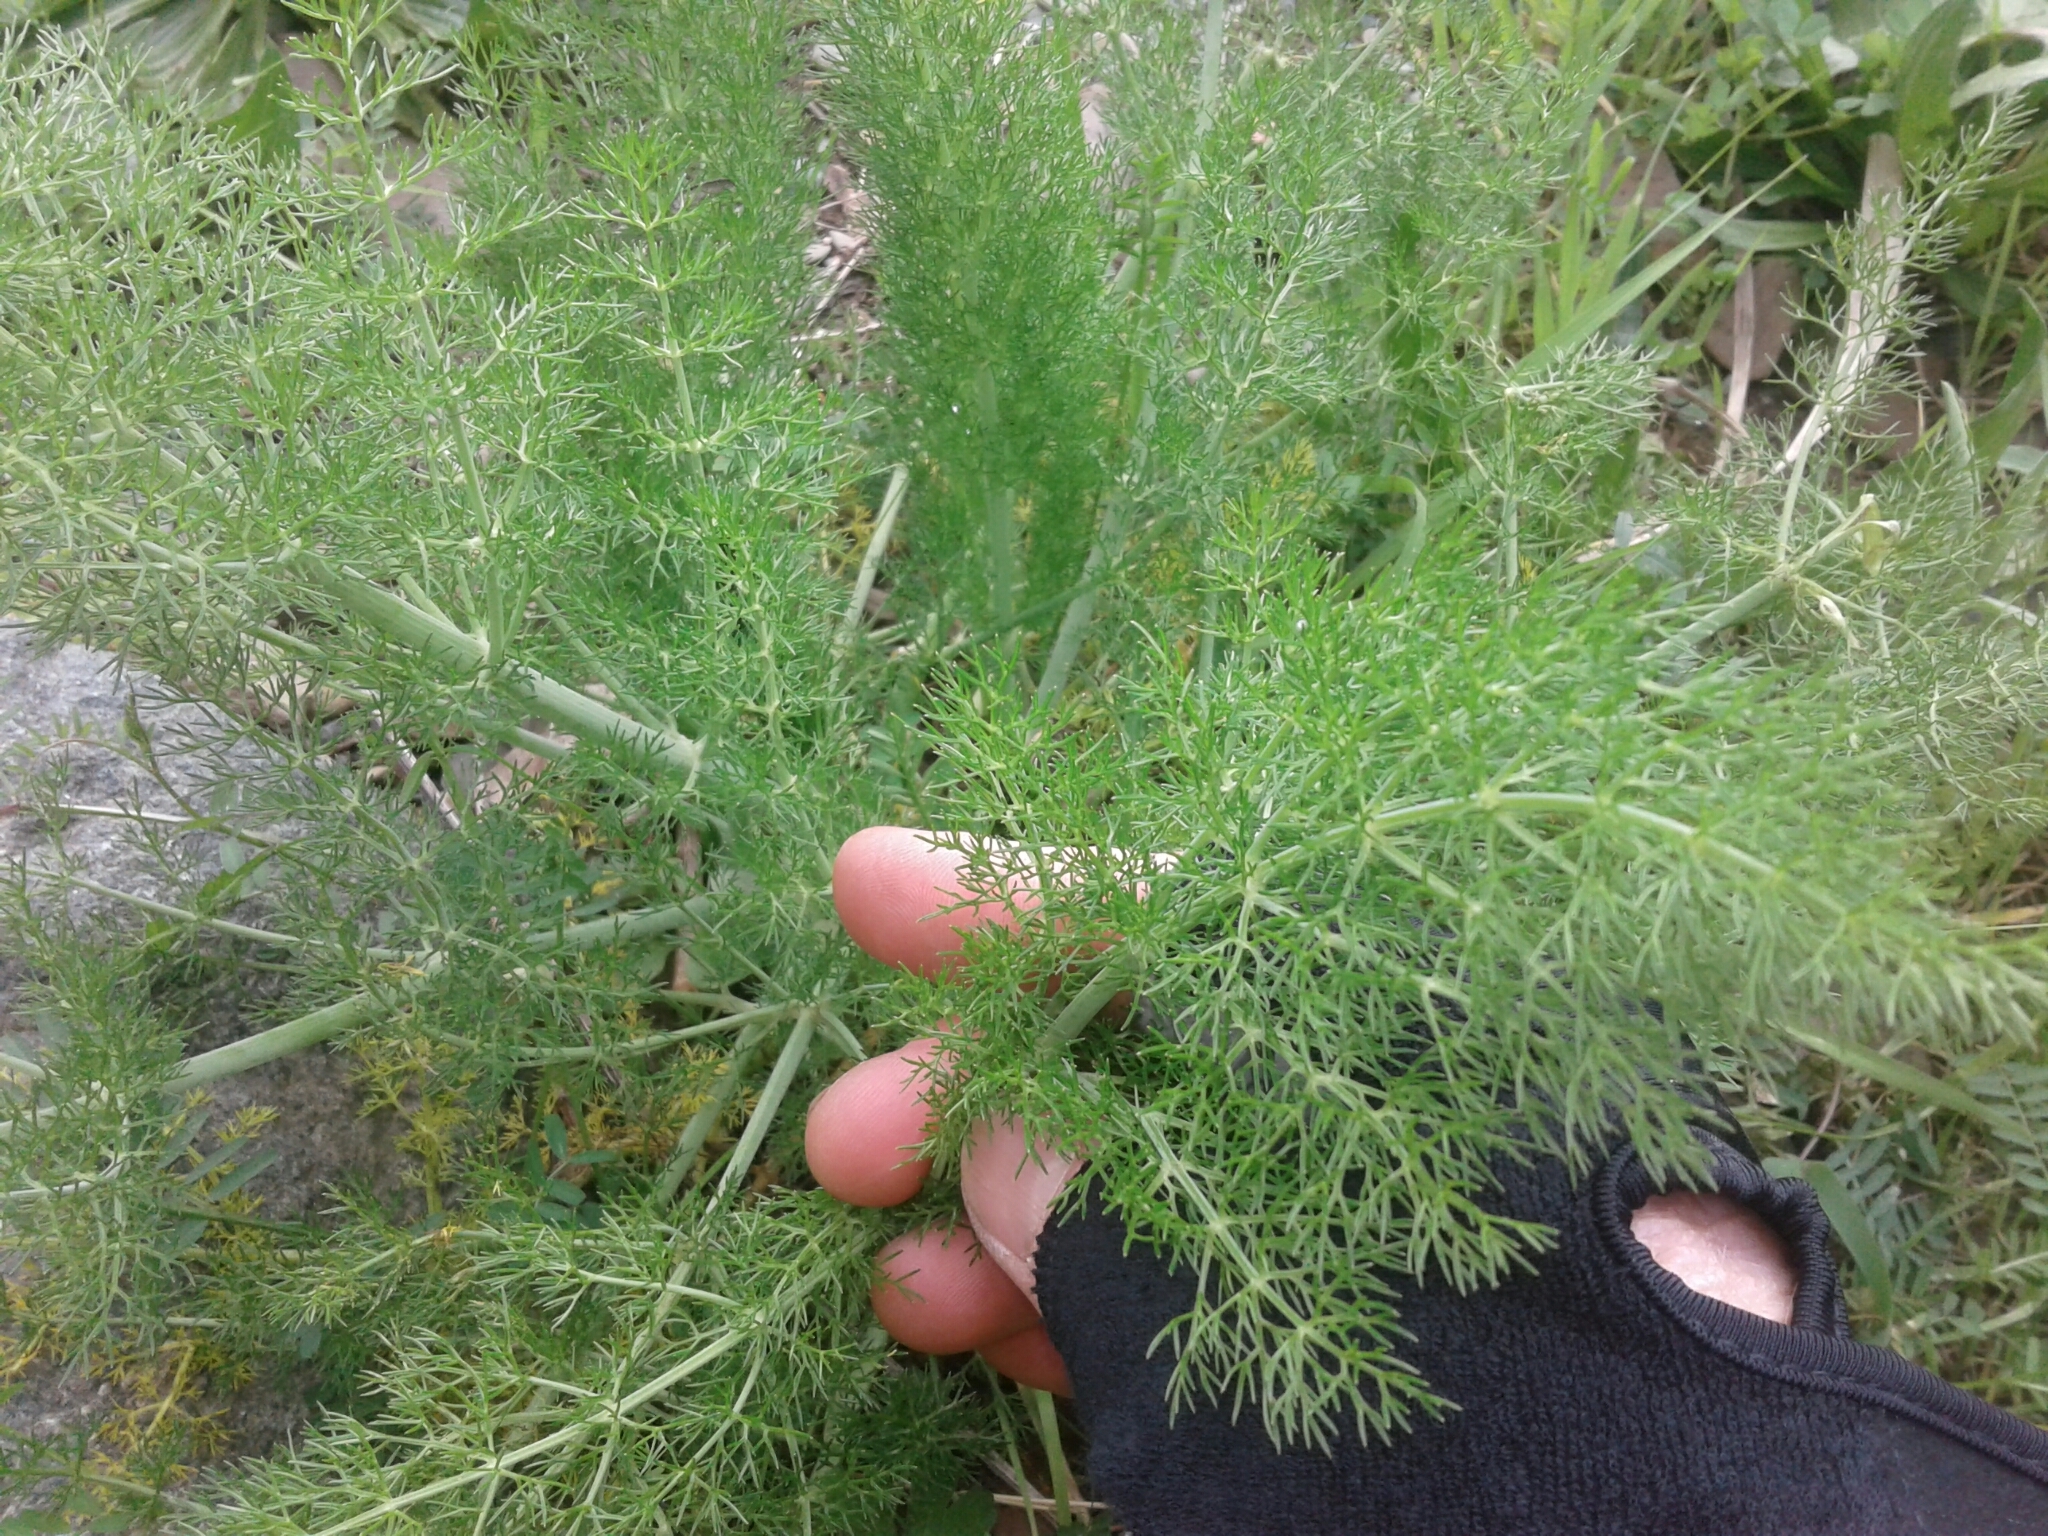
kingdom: Plantae
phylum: Tracheophyta
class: Magnoliopsida
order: Apiales
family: Apiaceae
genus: Foeniculum
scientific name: Foeniculum vulgare
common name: Fennel
